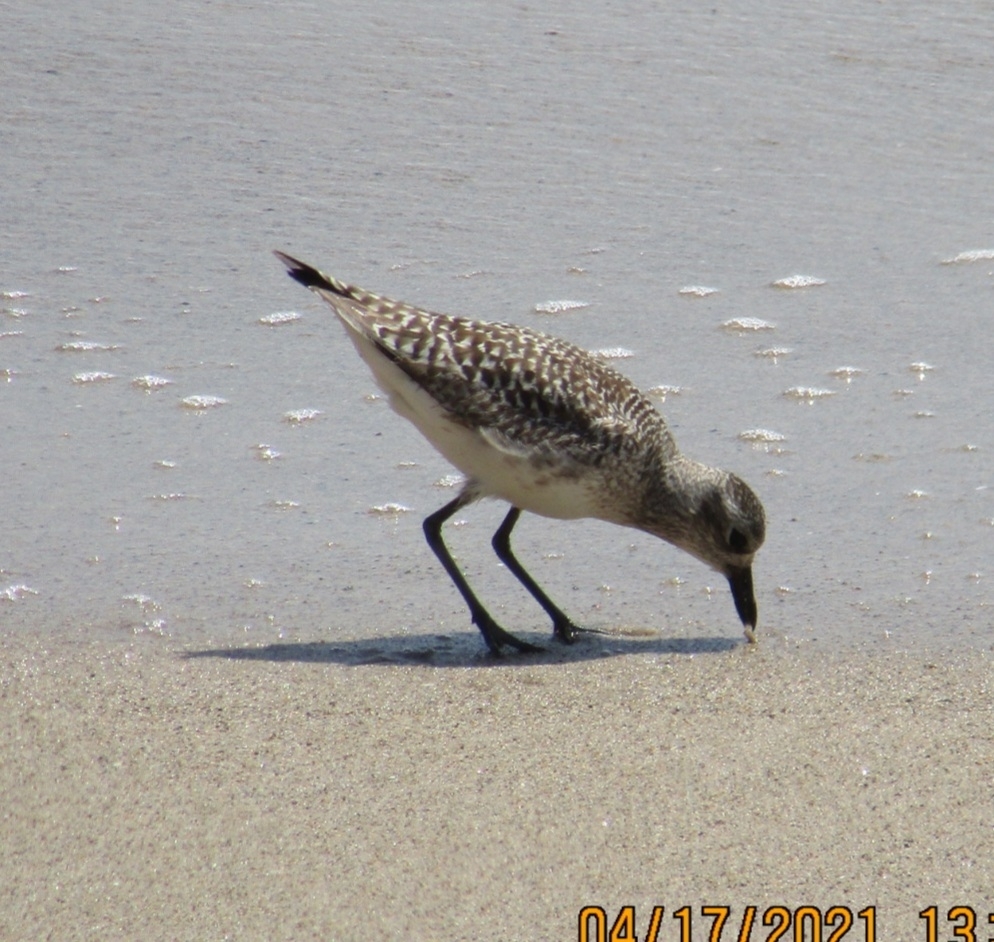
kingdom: Animalia
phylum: Chordata
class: Aves
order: Charadriiformes
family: Charadriidae
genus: Pluvialis
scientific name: Pluvialis squatarola
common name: Grey plover
